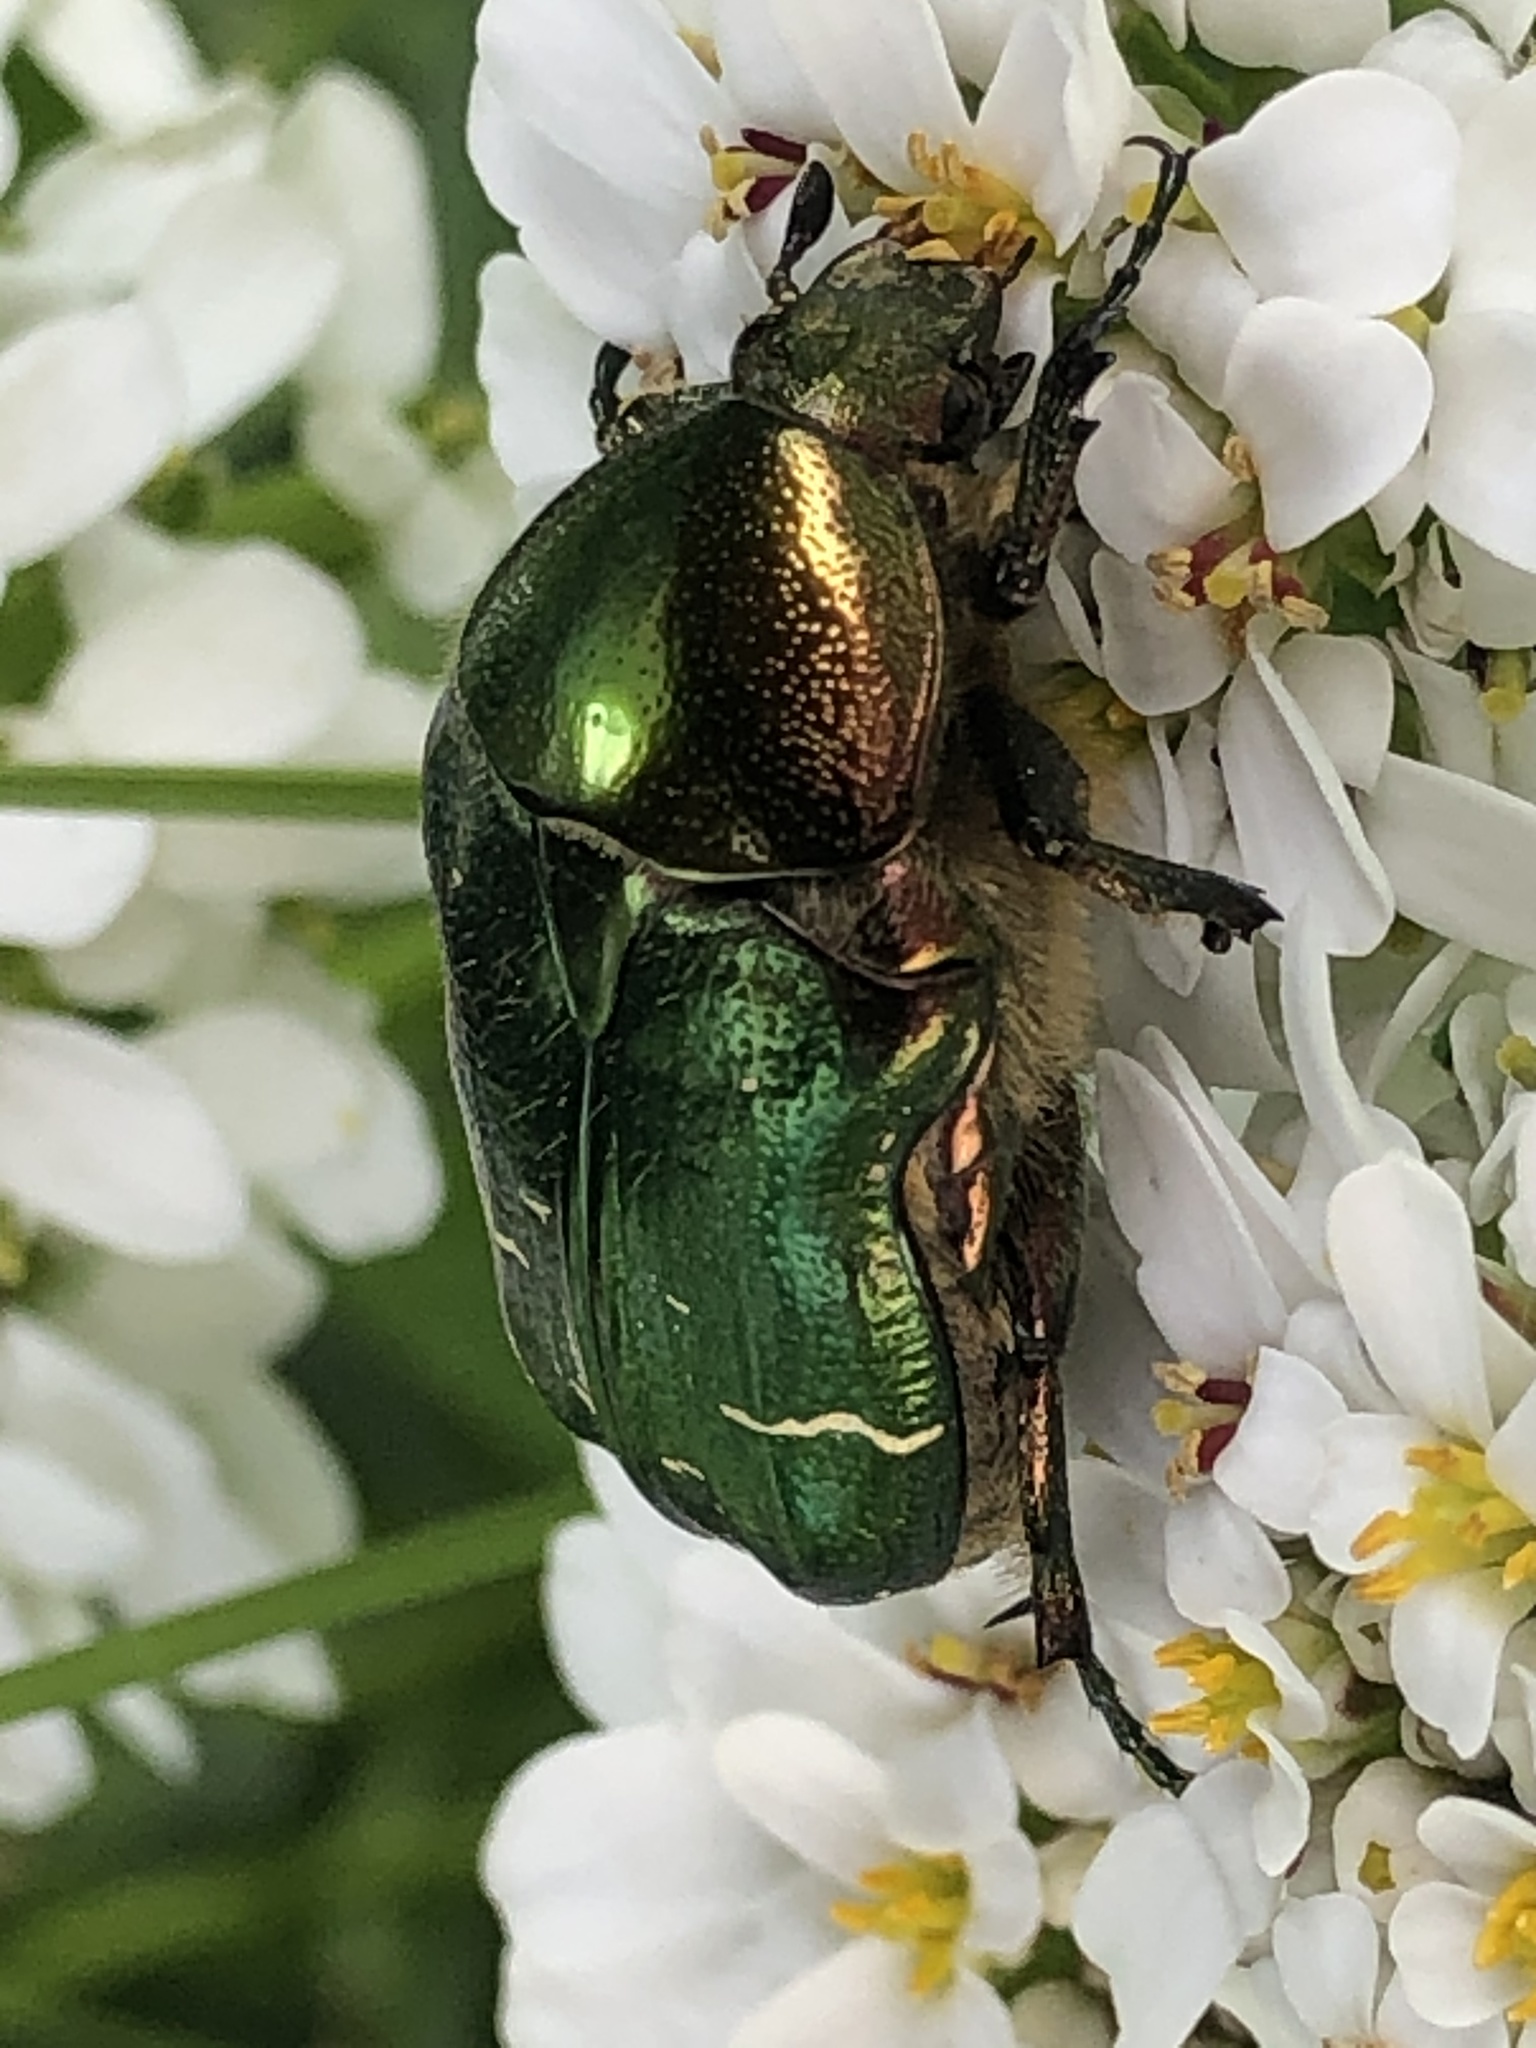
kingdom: Animalia
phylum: Arthropoda
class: Insecta
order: Coleoptera
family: Scarabaeidae
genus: Cetonia
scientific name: Cetonia aurata
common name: Rose chafer
